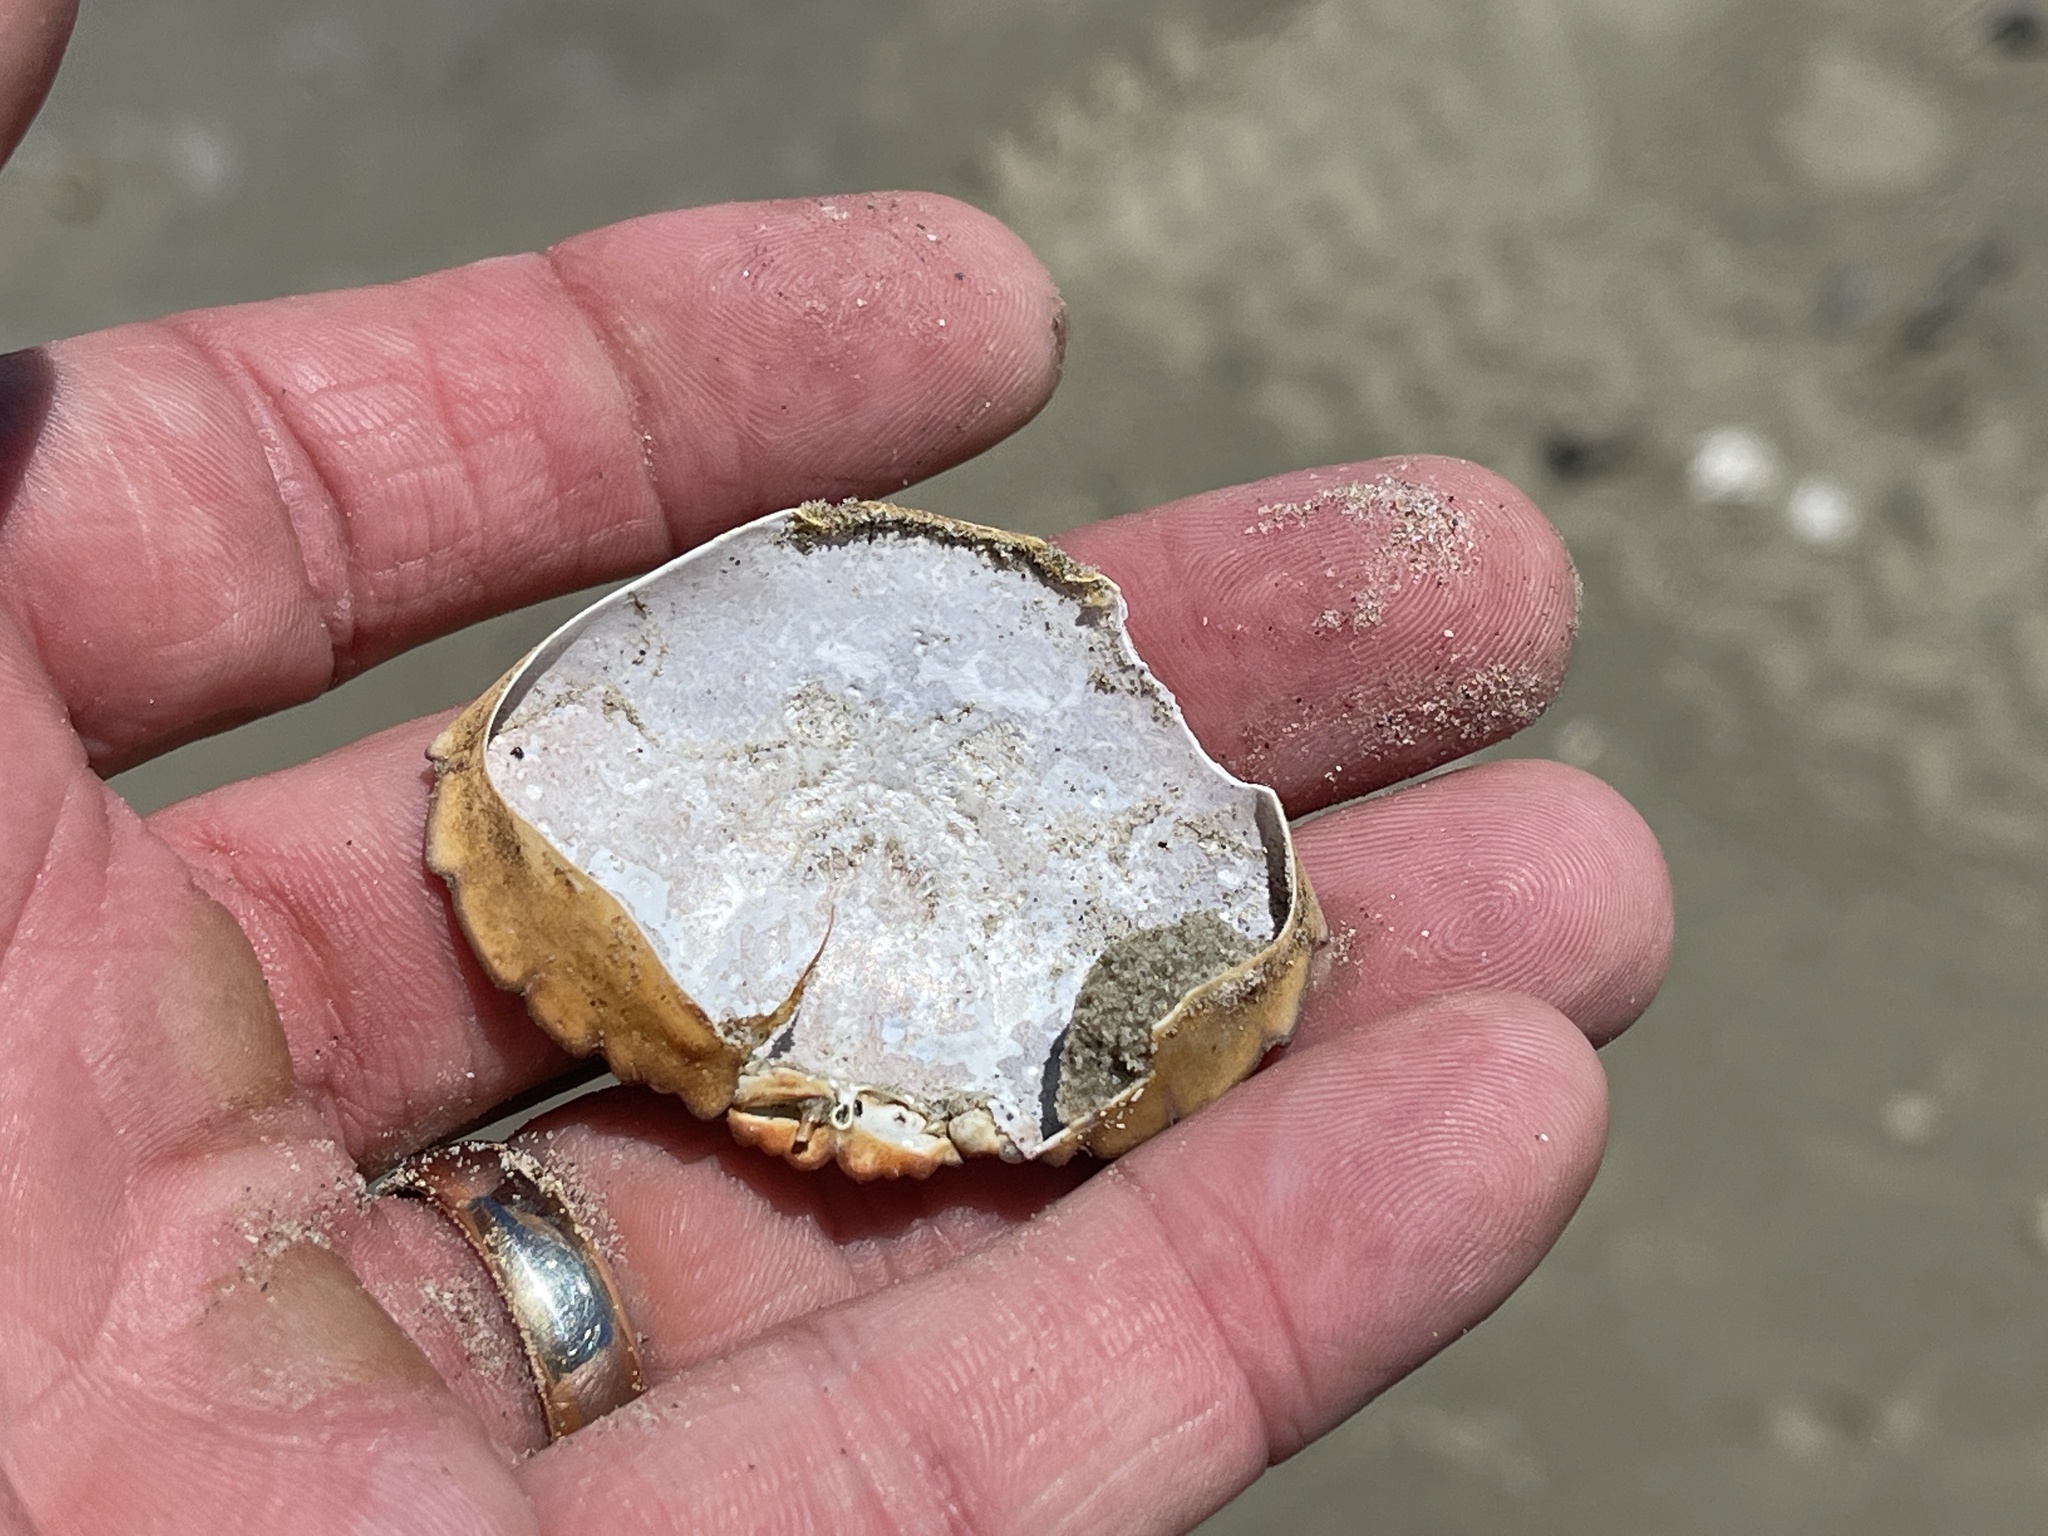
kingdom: Animalia
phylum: Arthropoda
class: Malacostraca
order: Decapoda
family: Menippidae
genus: Menippe
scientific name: Menippe adina
